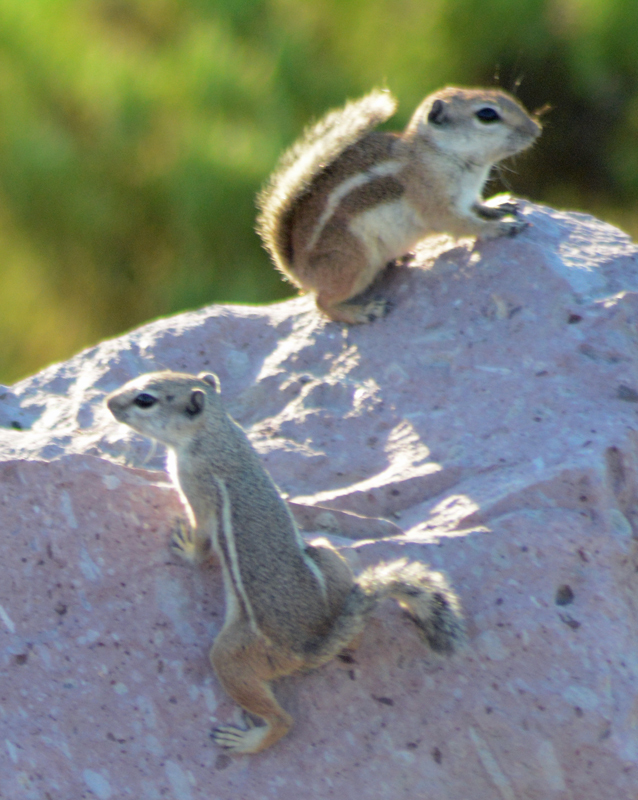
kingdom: Animalia
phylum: Chordata
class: Mammalia
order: Rodentia
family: Sciuridae
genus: Ammospermophilus
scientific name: Ammospermophilus leucurus
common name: White-tailed antelope squirrel
